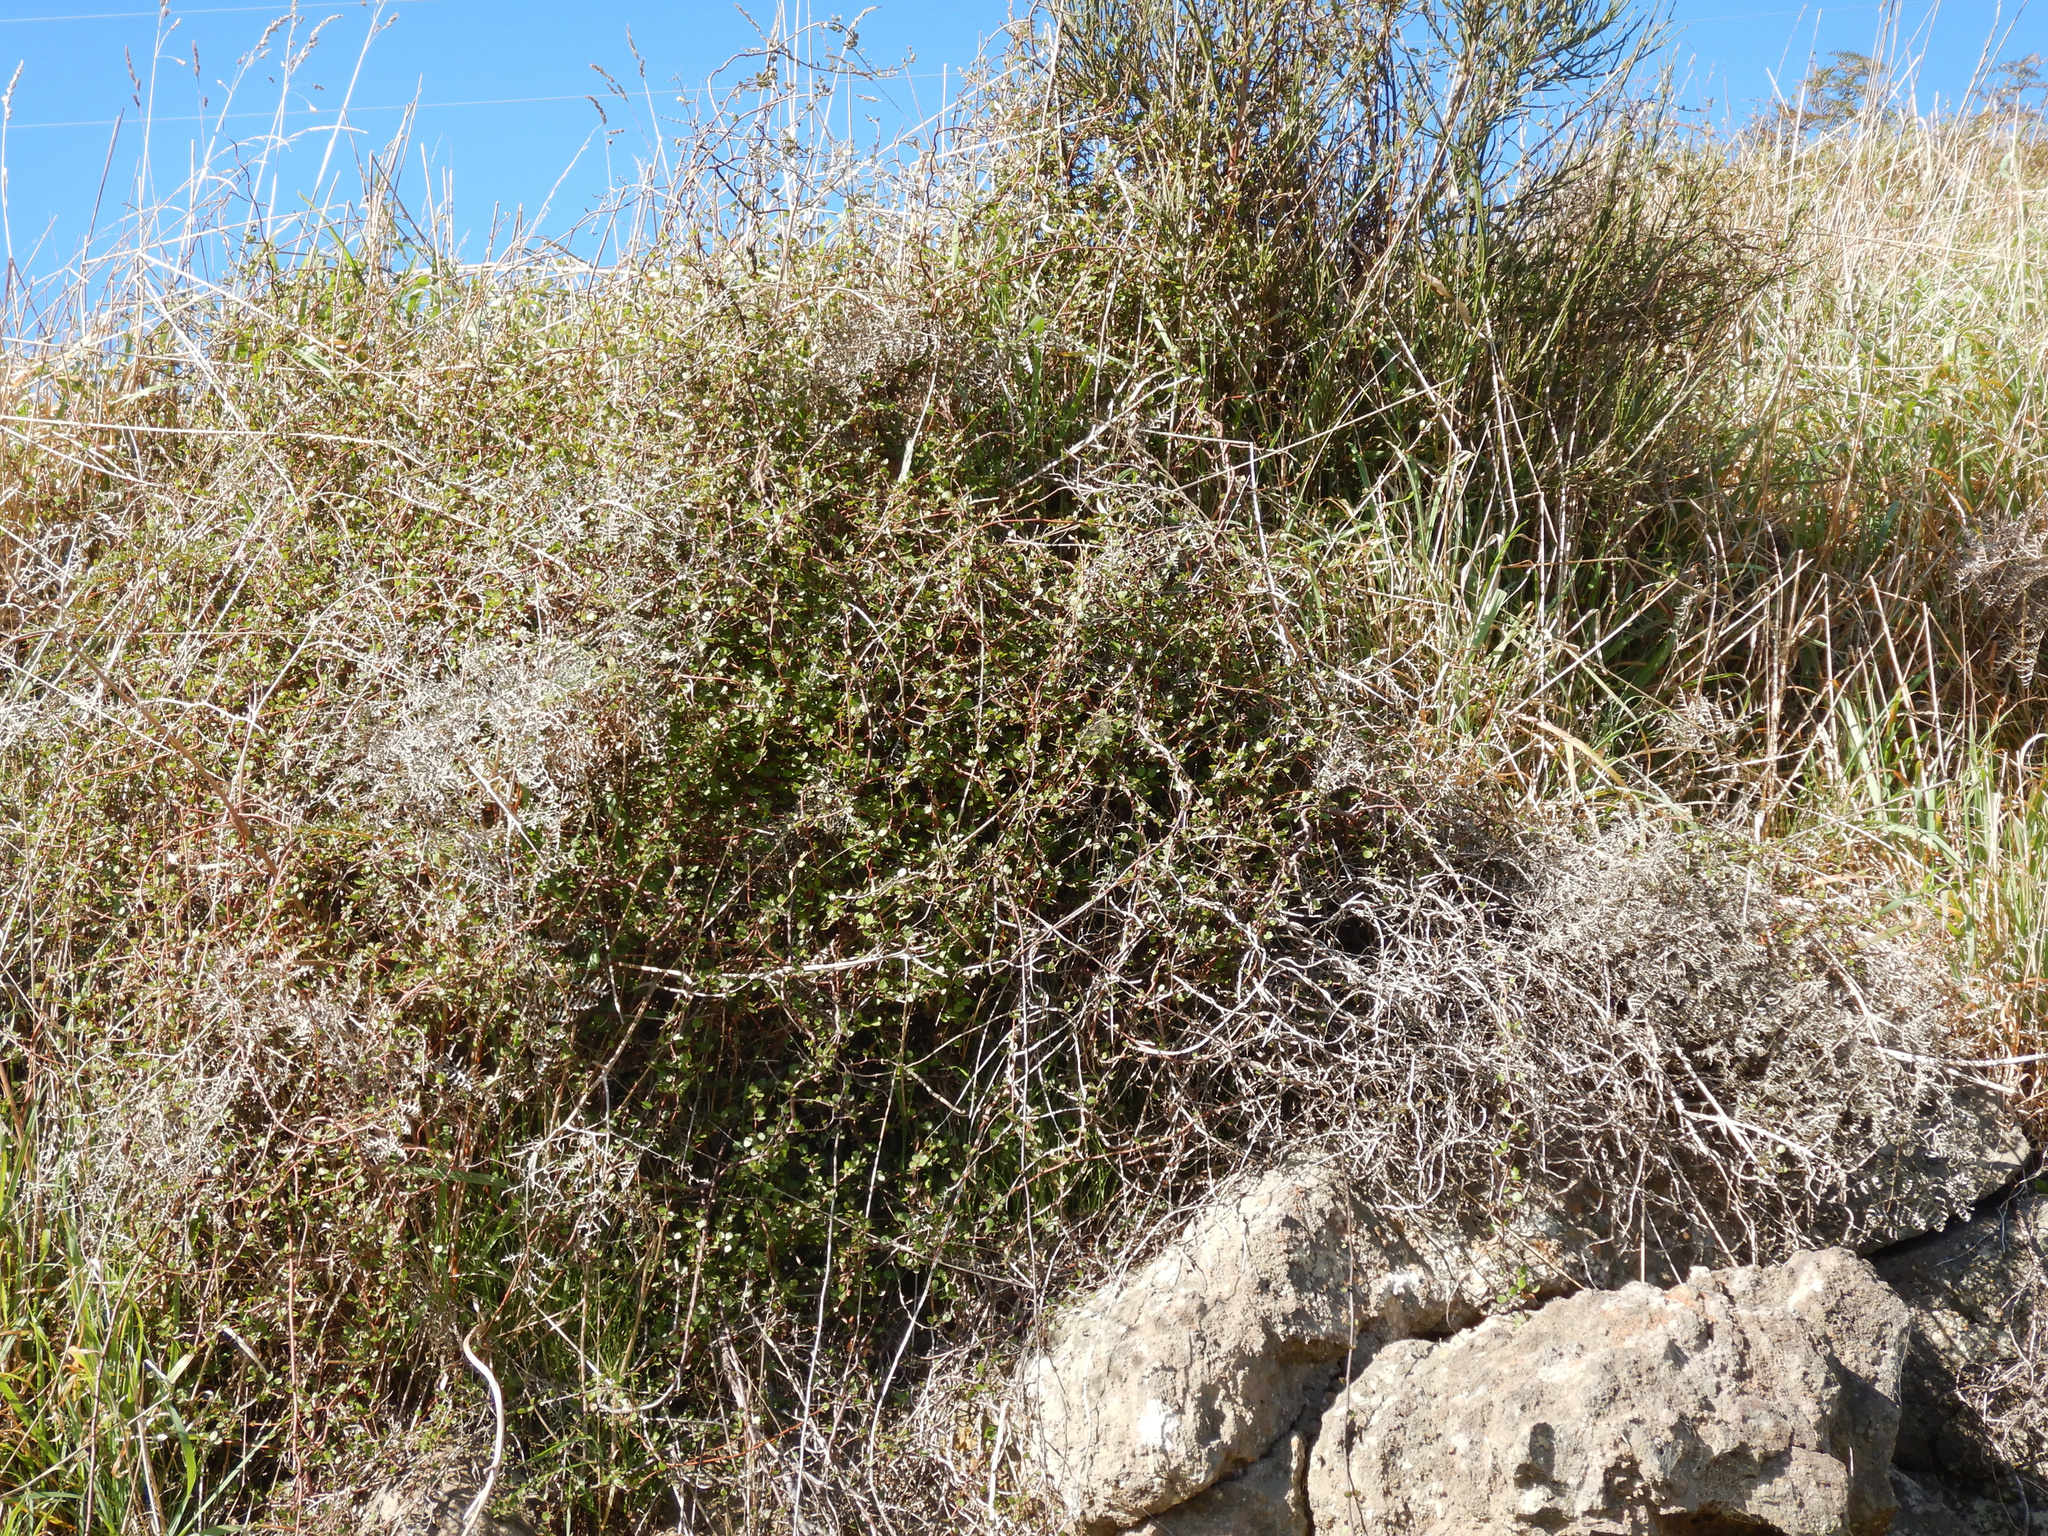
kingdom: Plantae
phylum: Tracheophyta
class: Magnoliopsida
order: Caryophyllales
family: Polygonaceae
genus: Muehlenbeckia
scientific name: Muehlenbeckia complexa
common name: Wireplant
